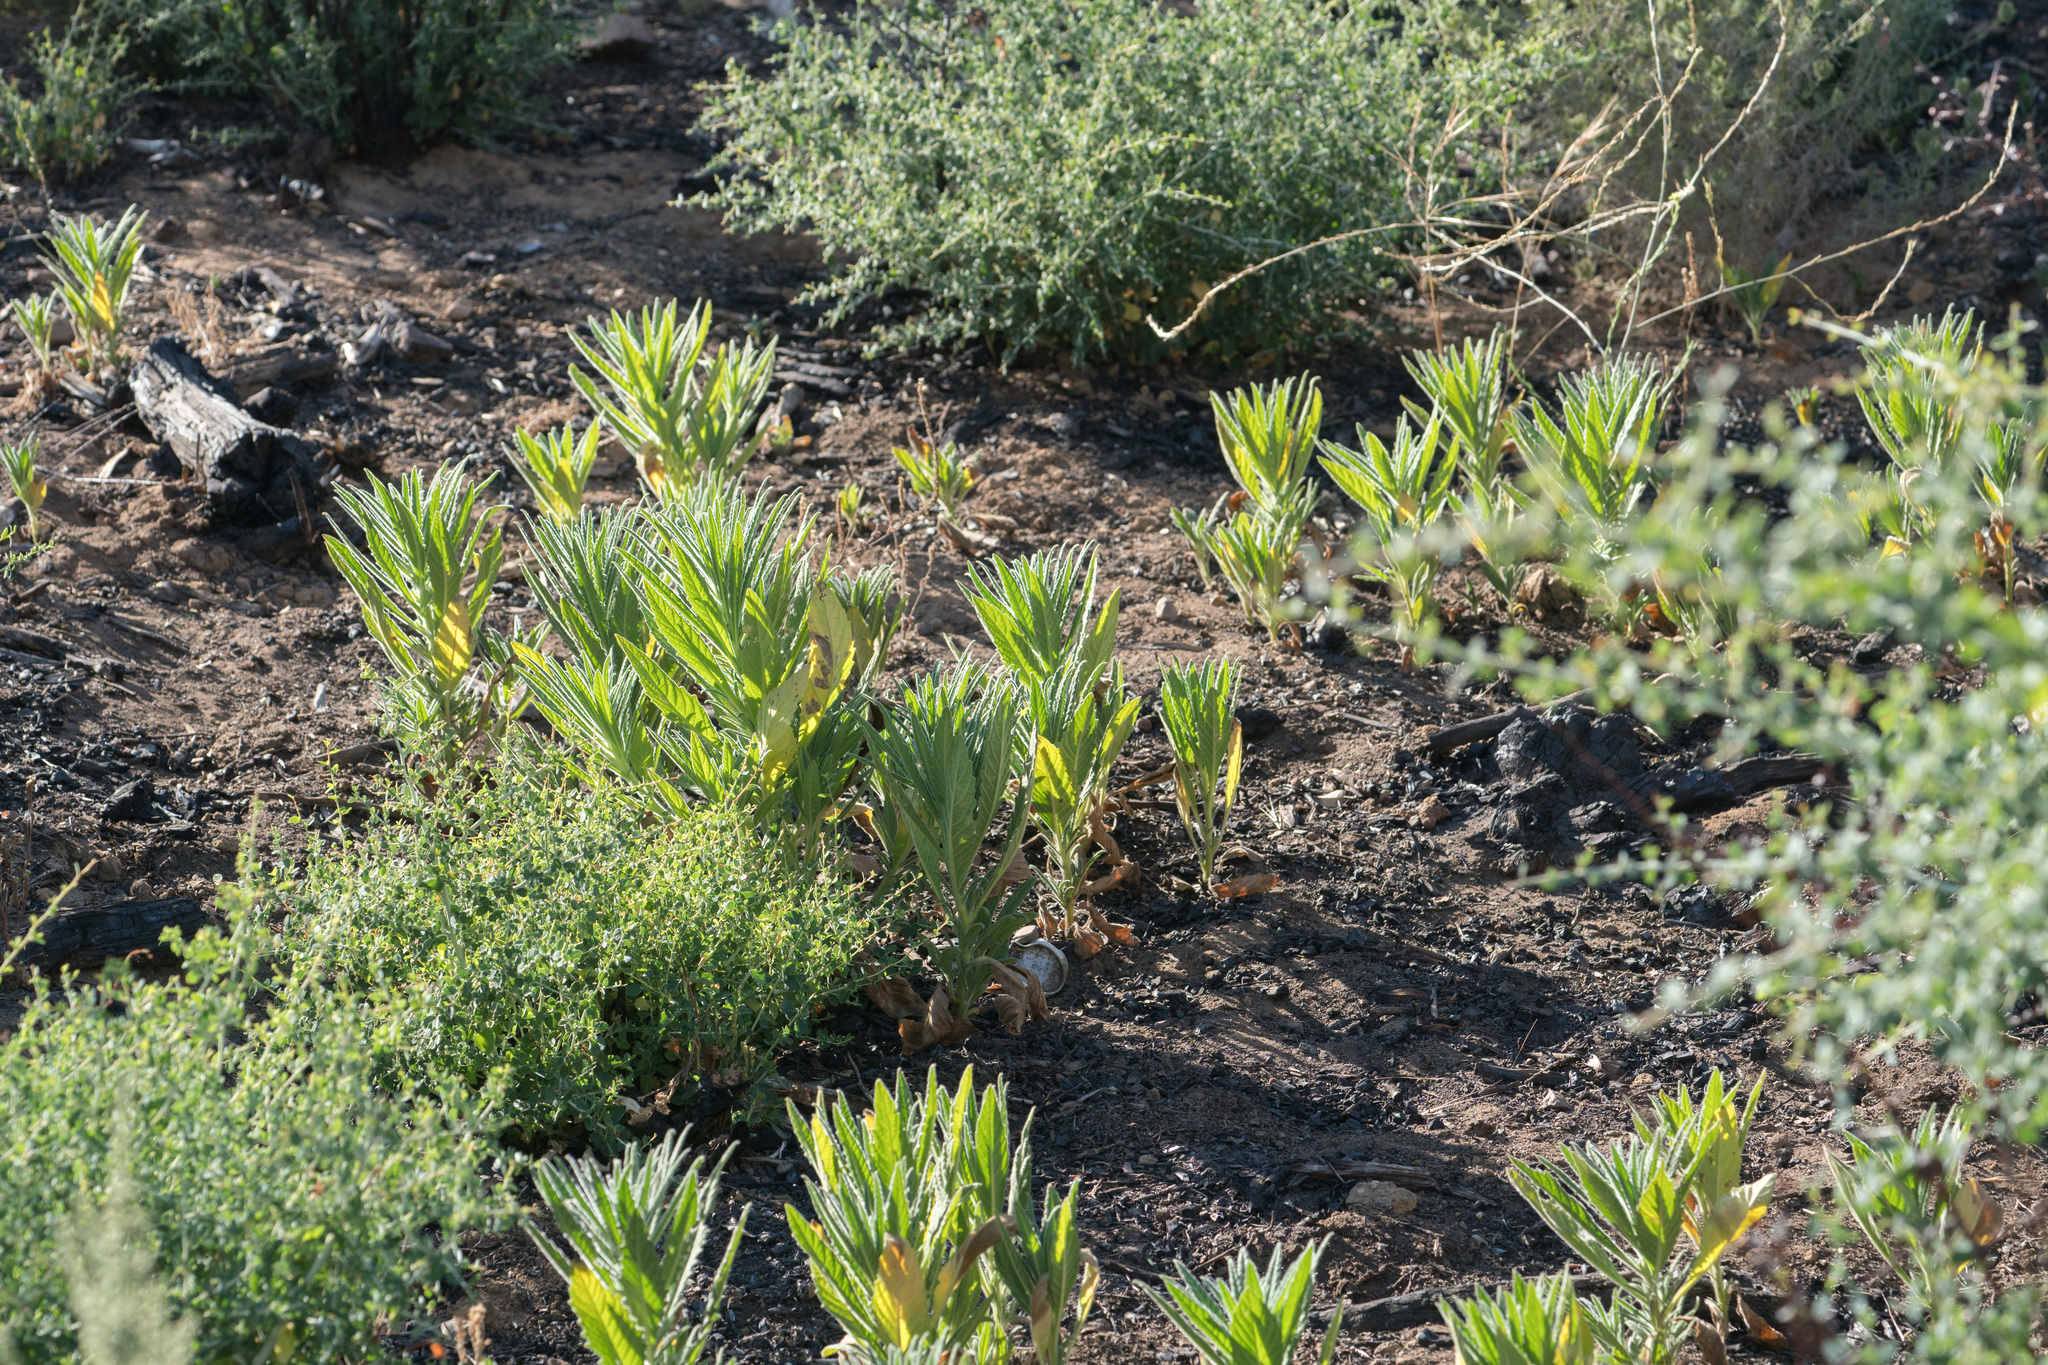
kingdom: Plantae
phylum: Tracheophyta
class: Magnoliopsida
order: Boraginales
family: Namaceae
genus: Turricula
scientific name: Turricula parryi
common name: Poodle-dog-bush
